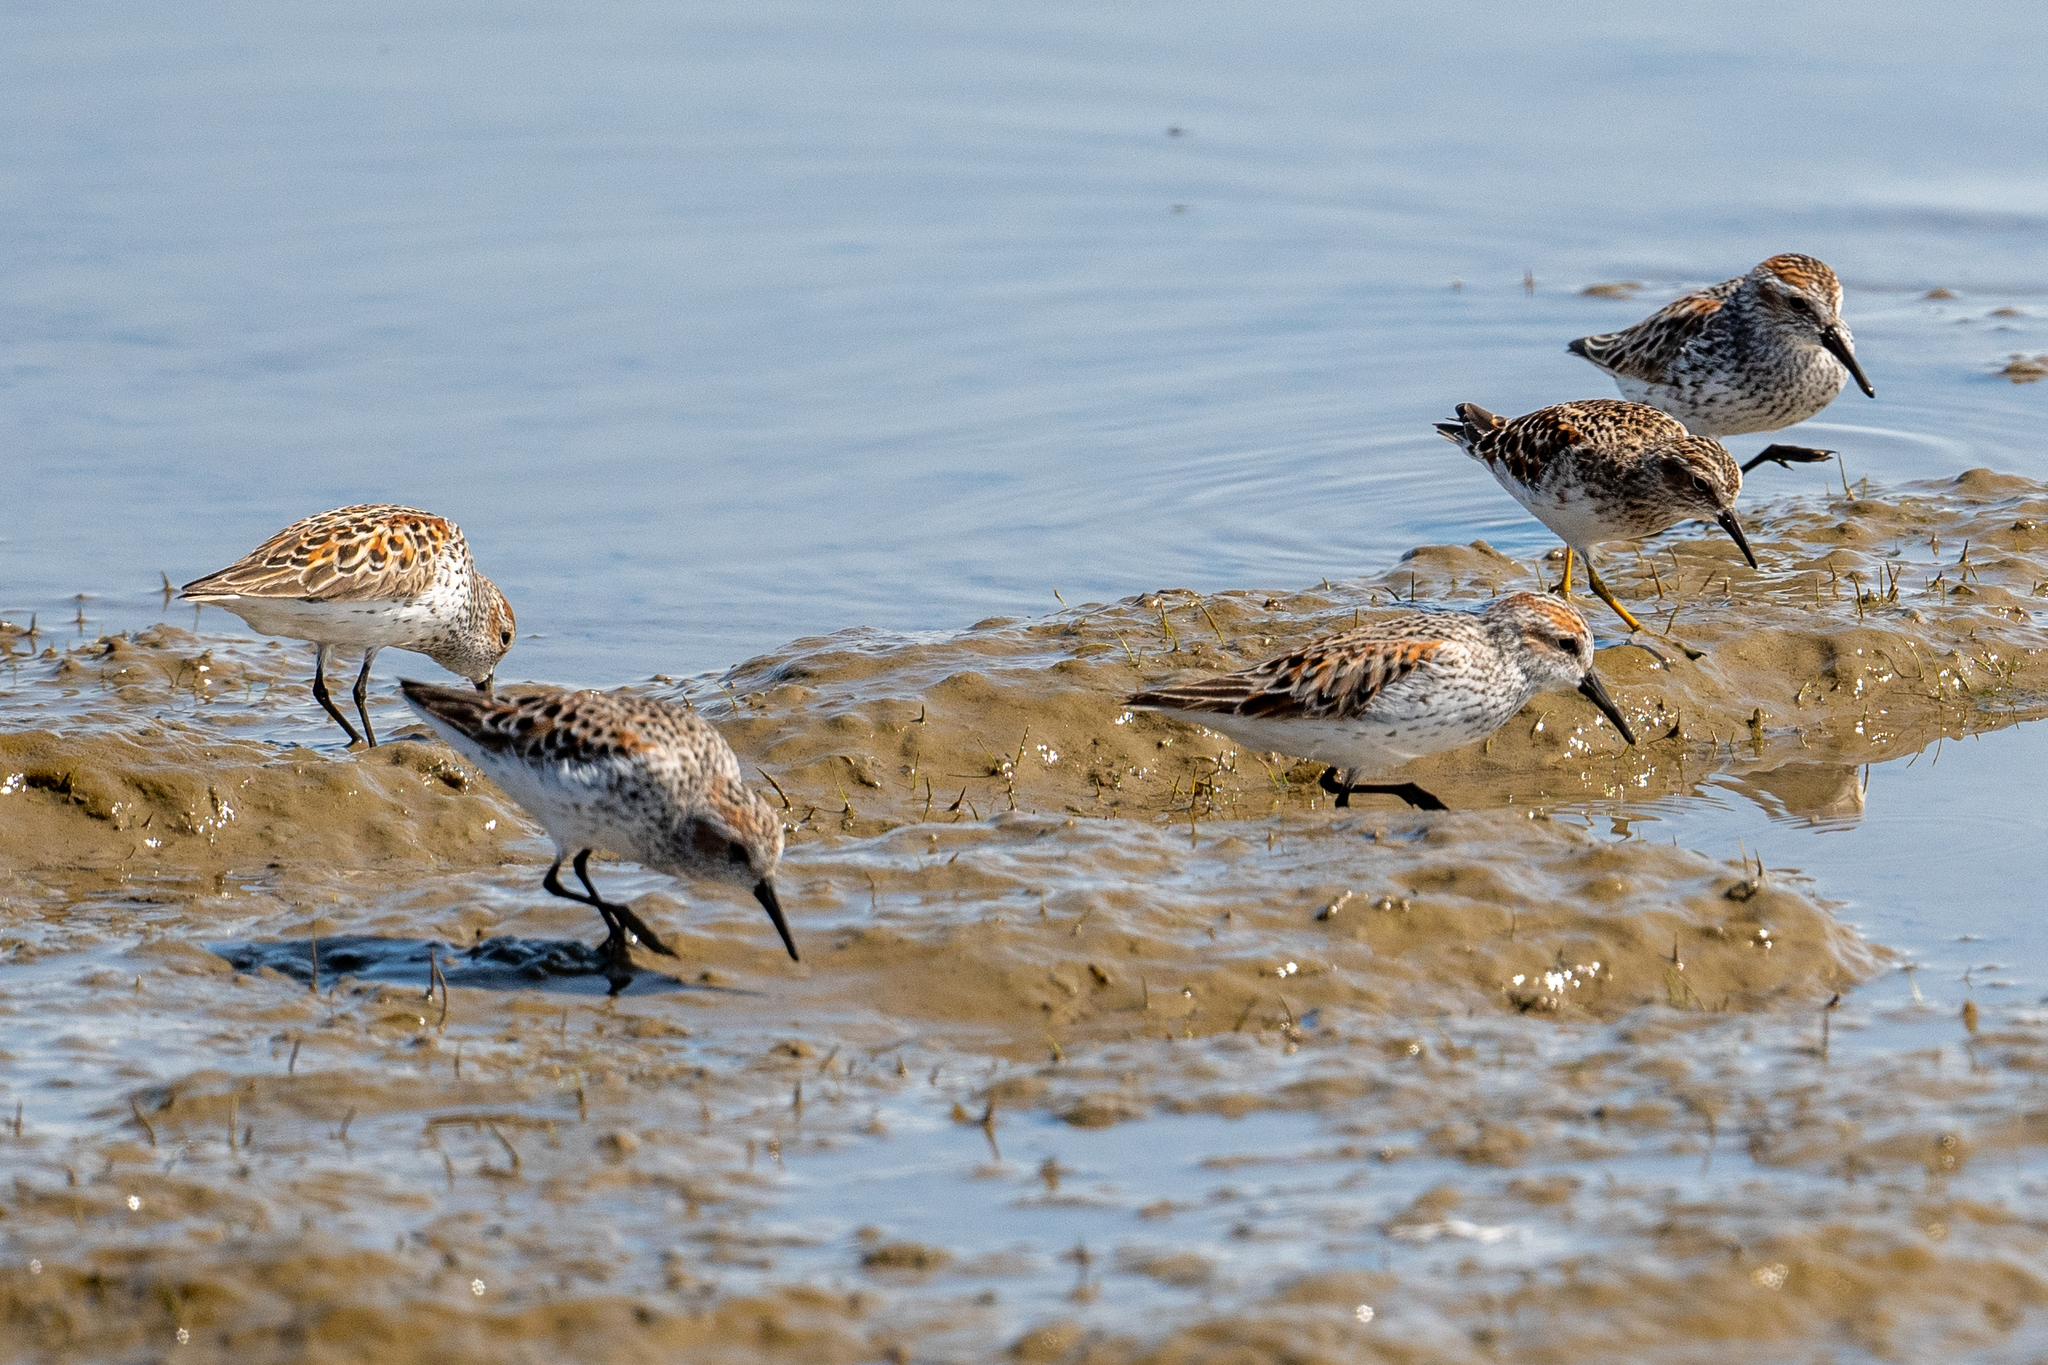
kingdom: Animalia
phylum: Chordata
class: Aves
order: Charadriiformes
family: Scolopacidae
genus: Calidris
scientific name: Calidris mauri
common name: Western sandpiper
